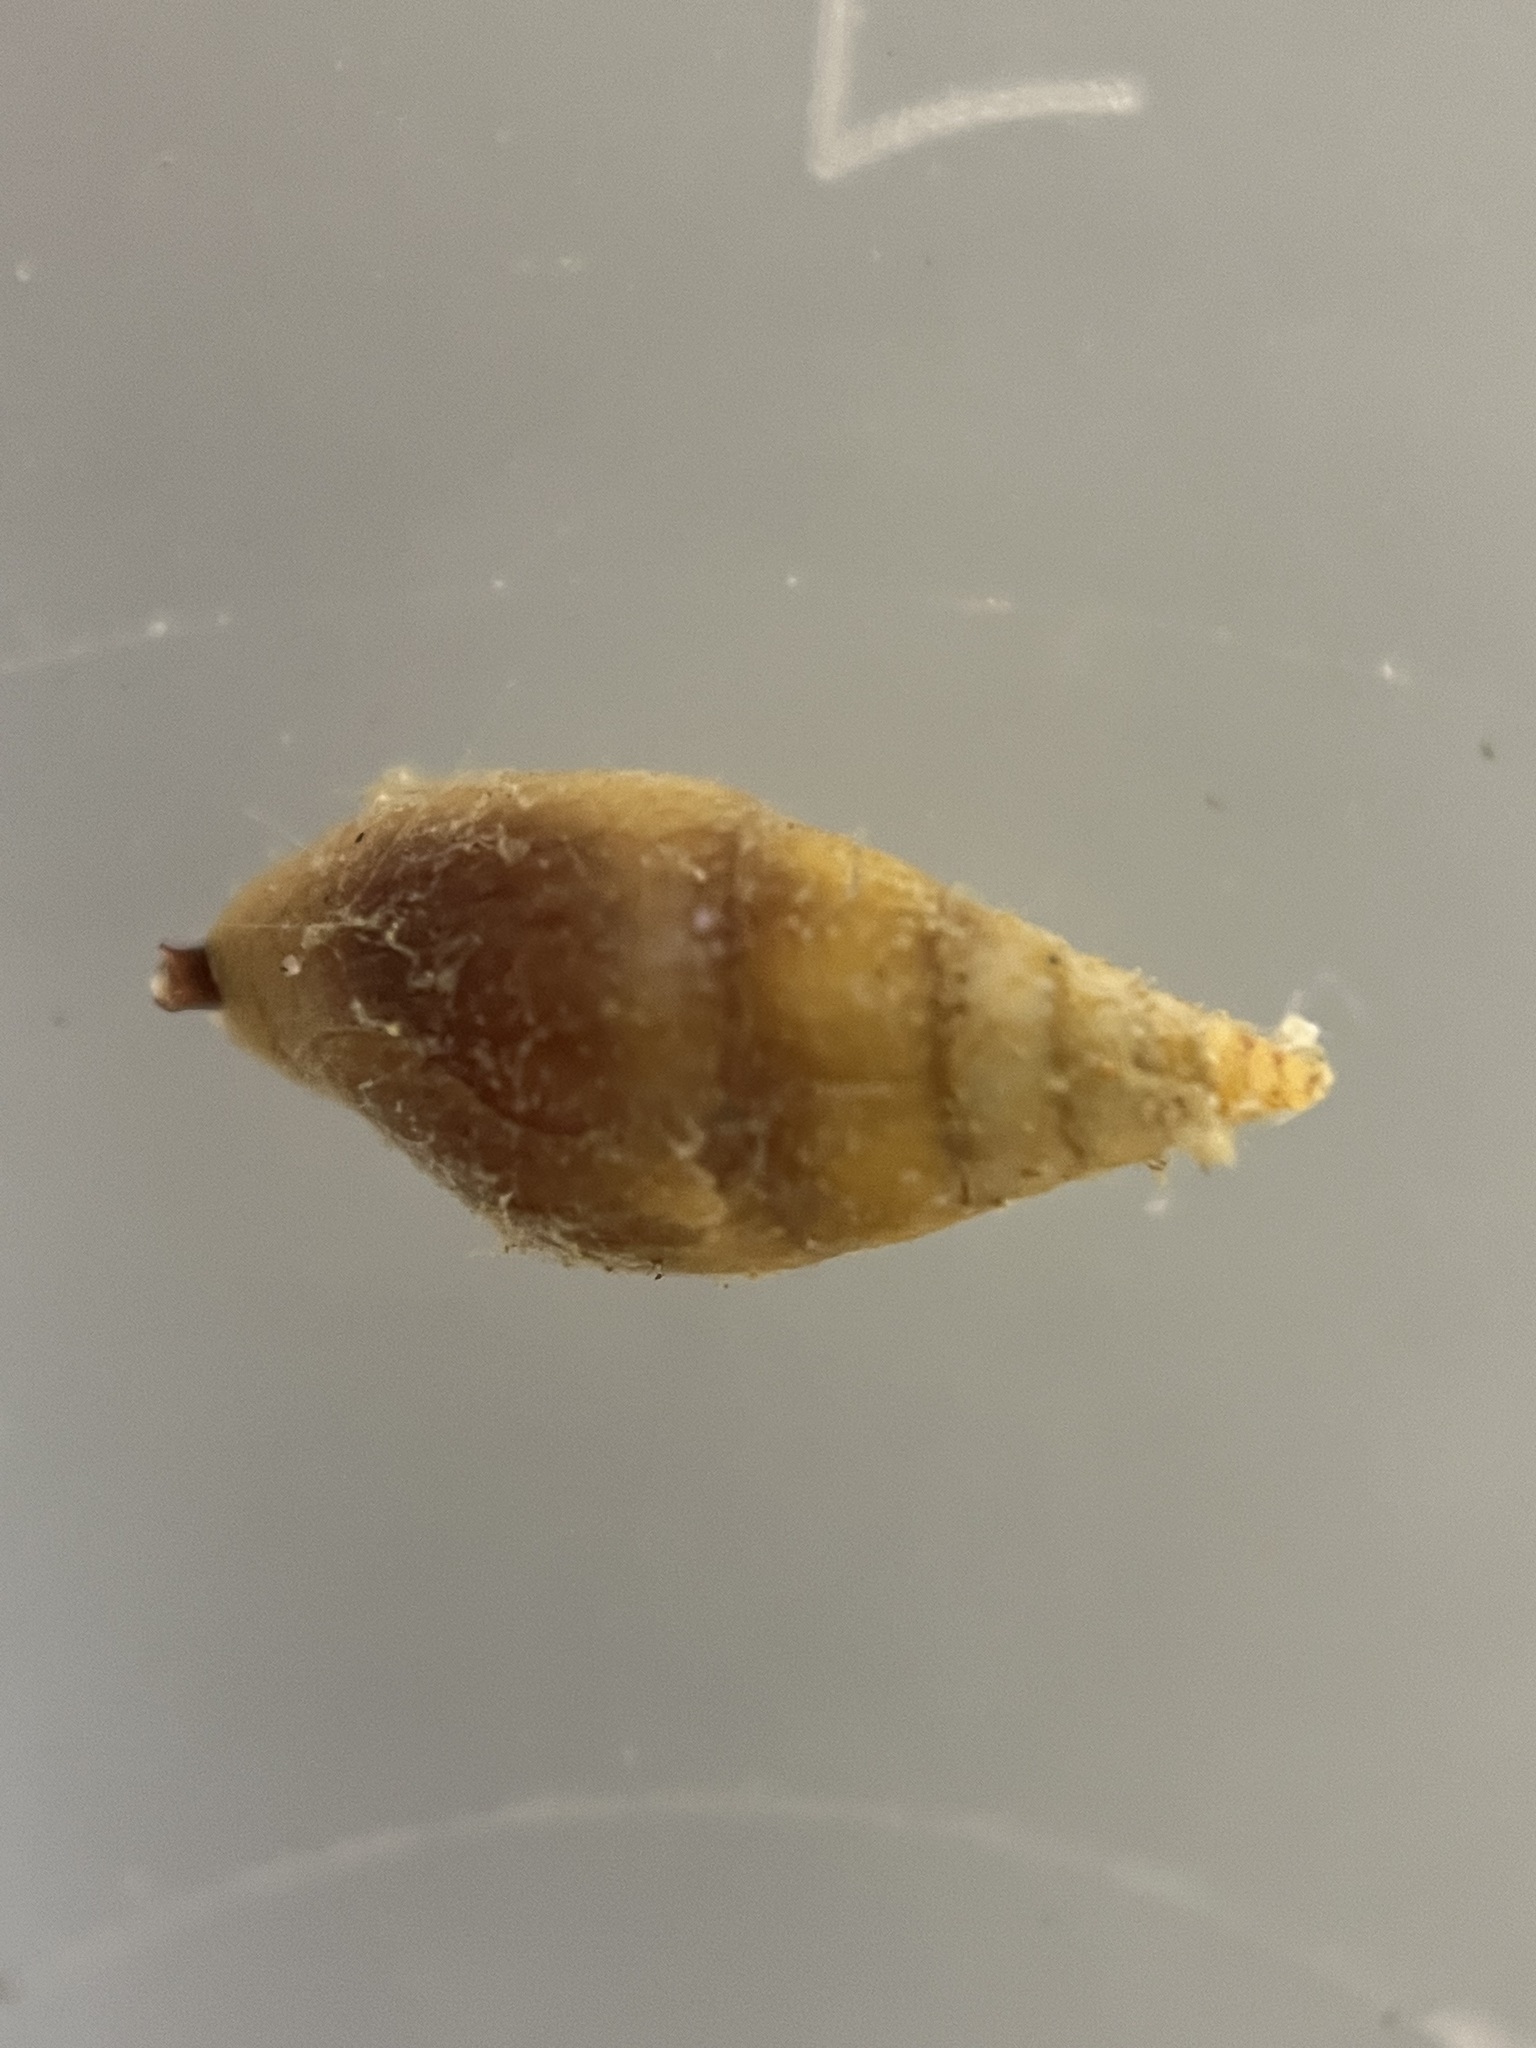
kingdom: Animalia
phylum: Mollusca
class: Gastropoda
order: Neogastropoda
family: Columbellidae
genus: Mitrella
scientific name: Mitrella austrina
